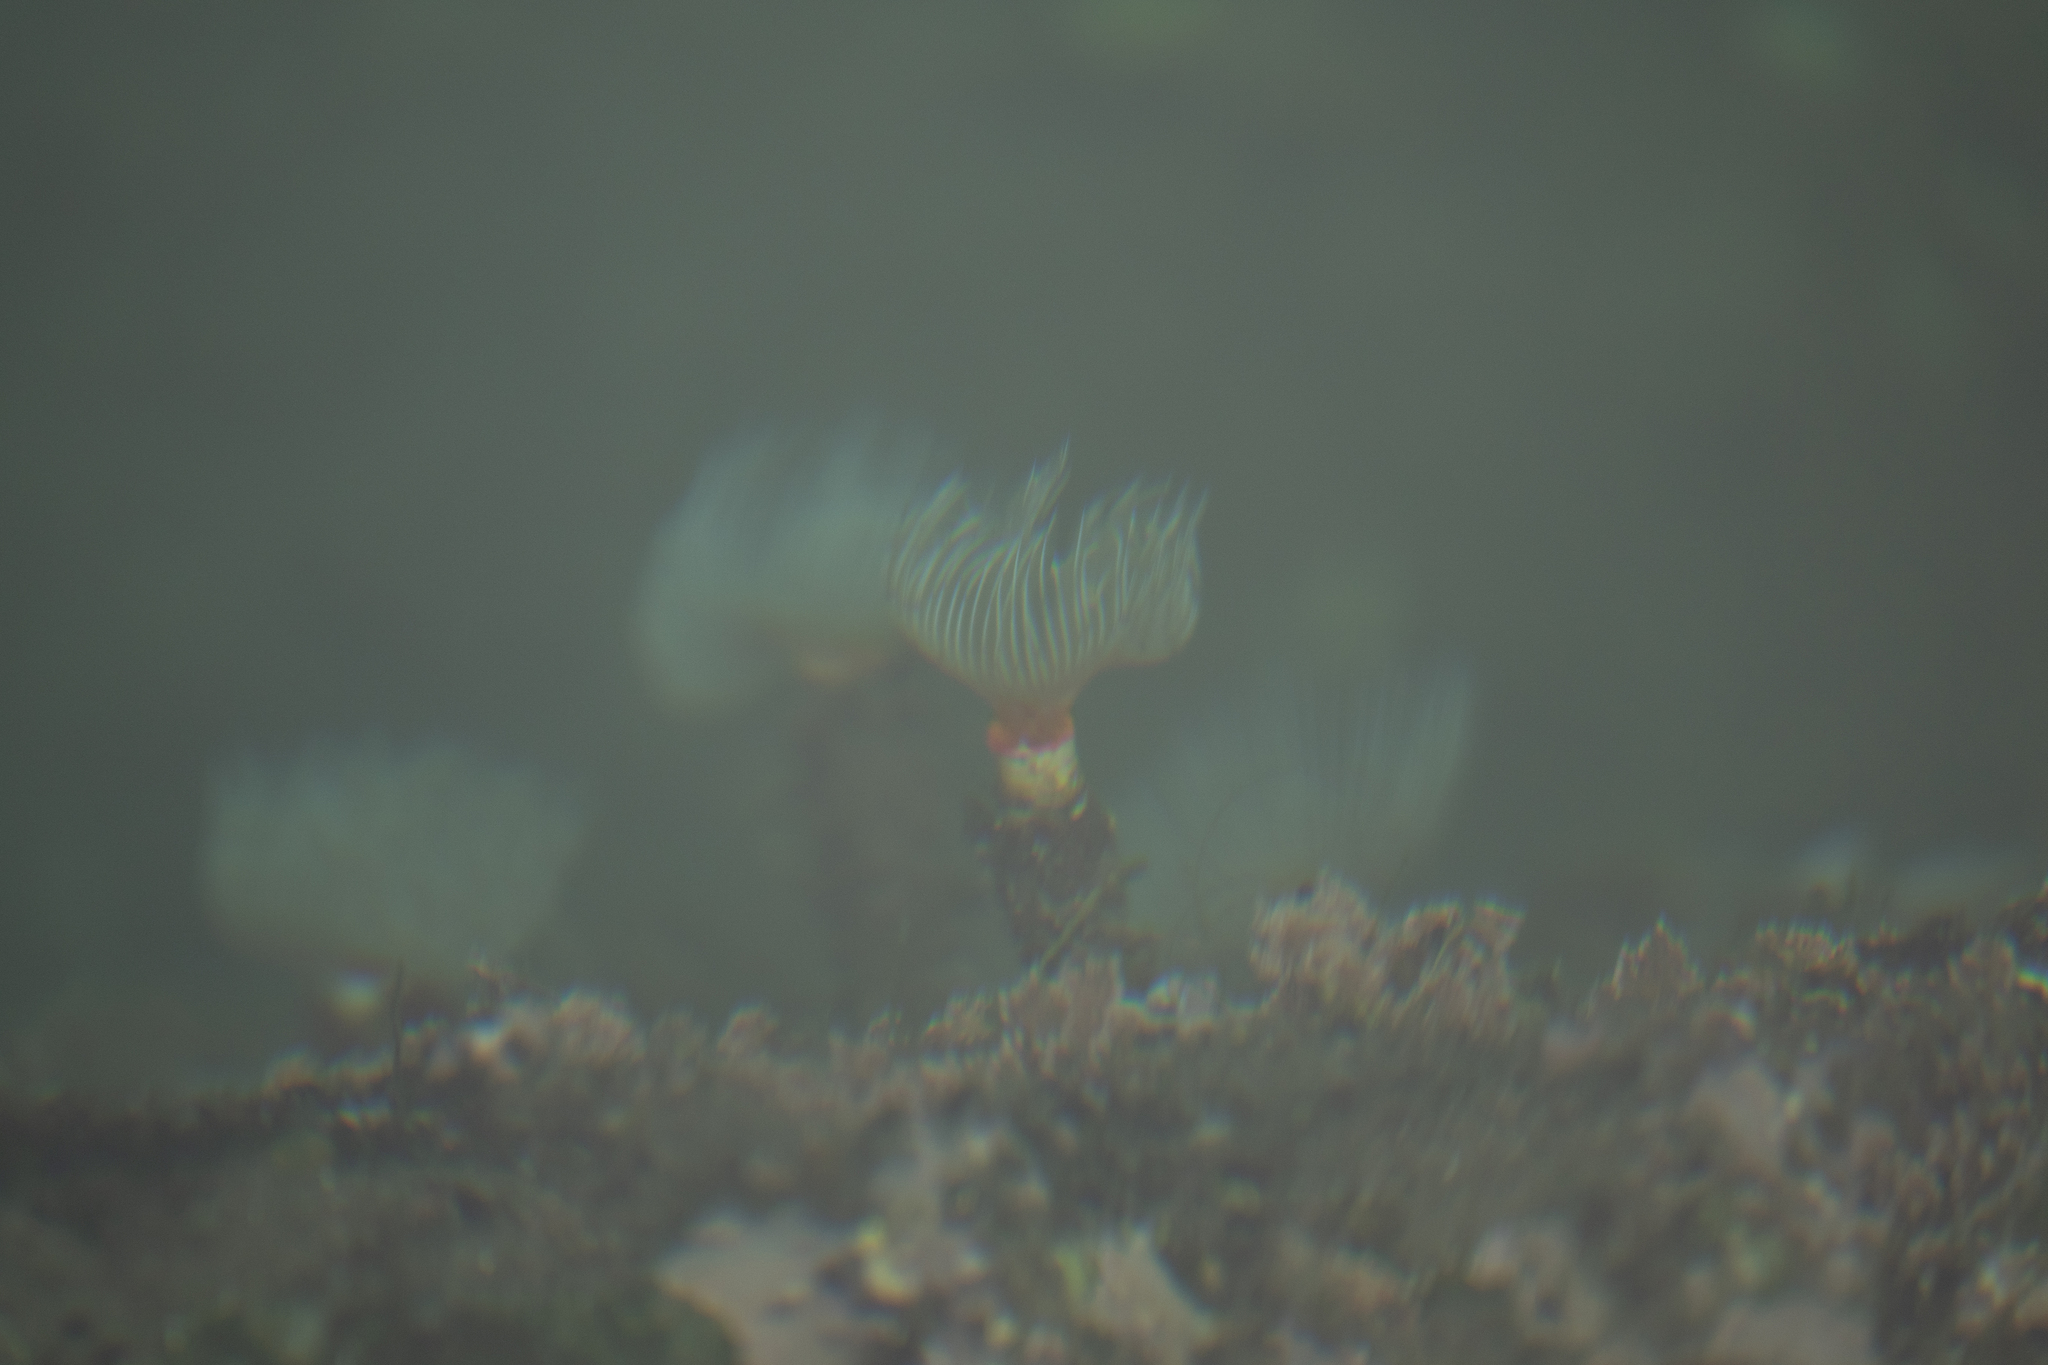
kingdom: Animalia
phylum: Annelida
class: Polychaeta
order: Sabellida
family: Serpulidae
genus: Protula
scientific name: Protula tubularia
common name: Red-spotted horseshoe
